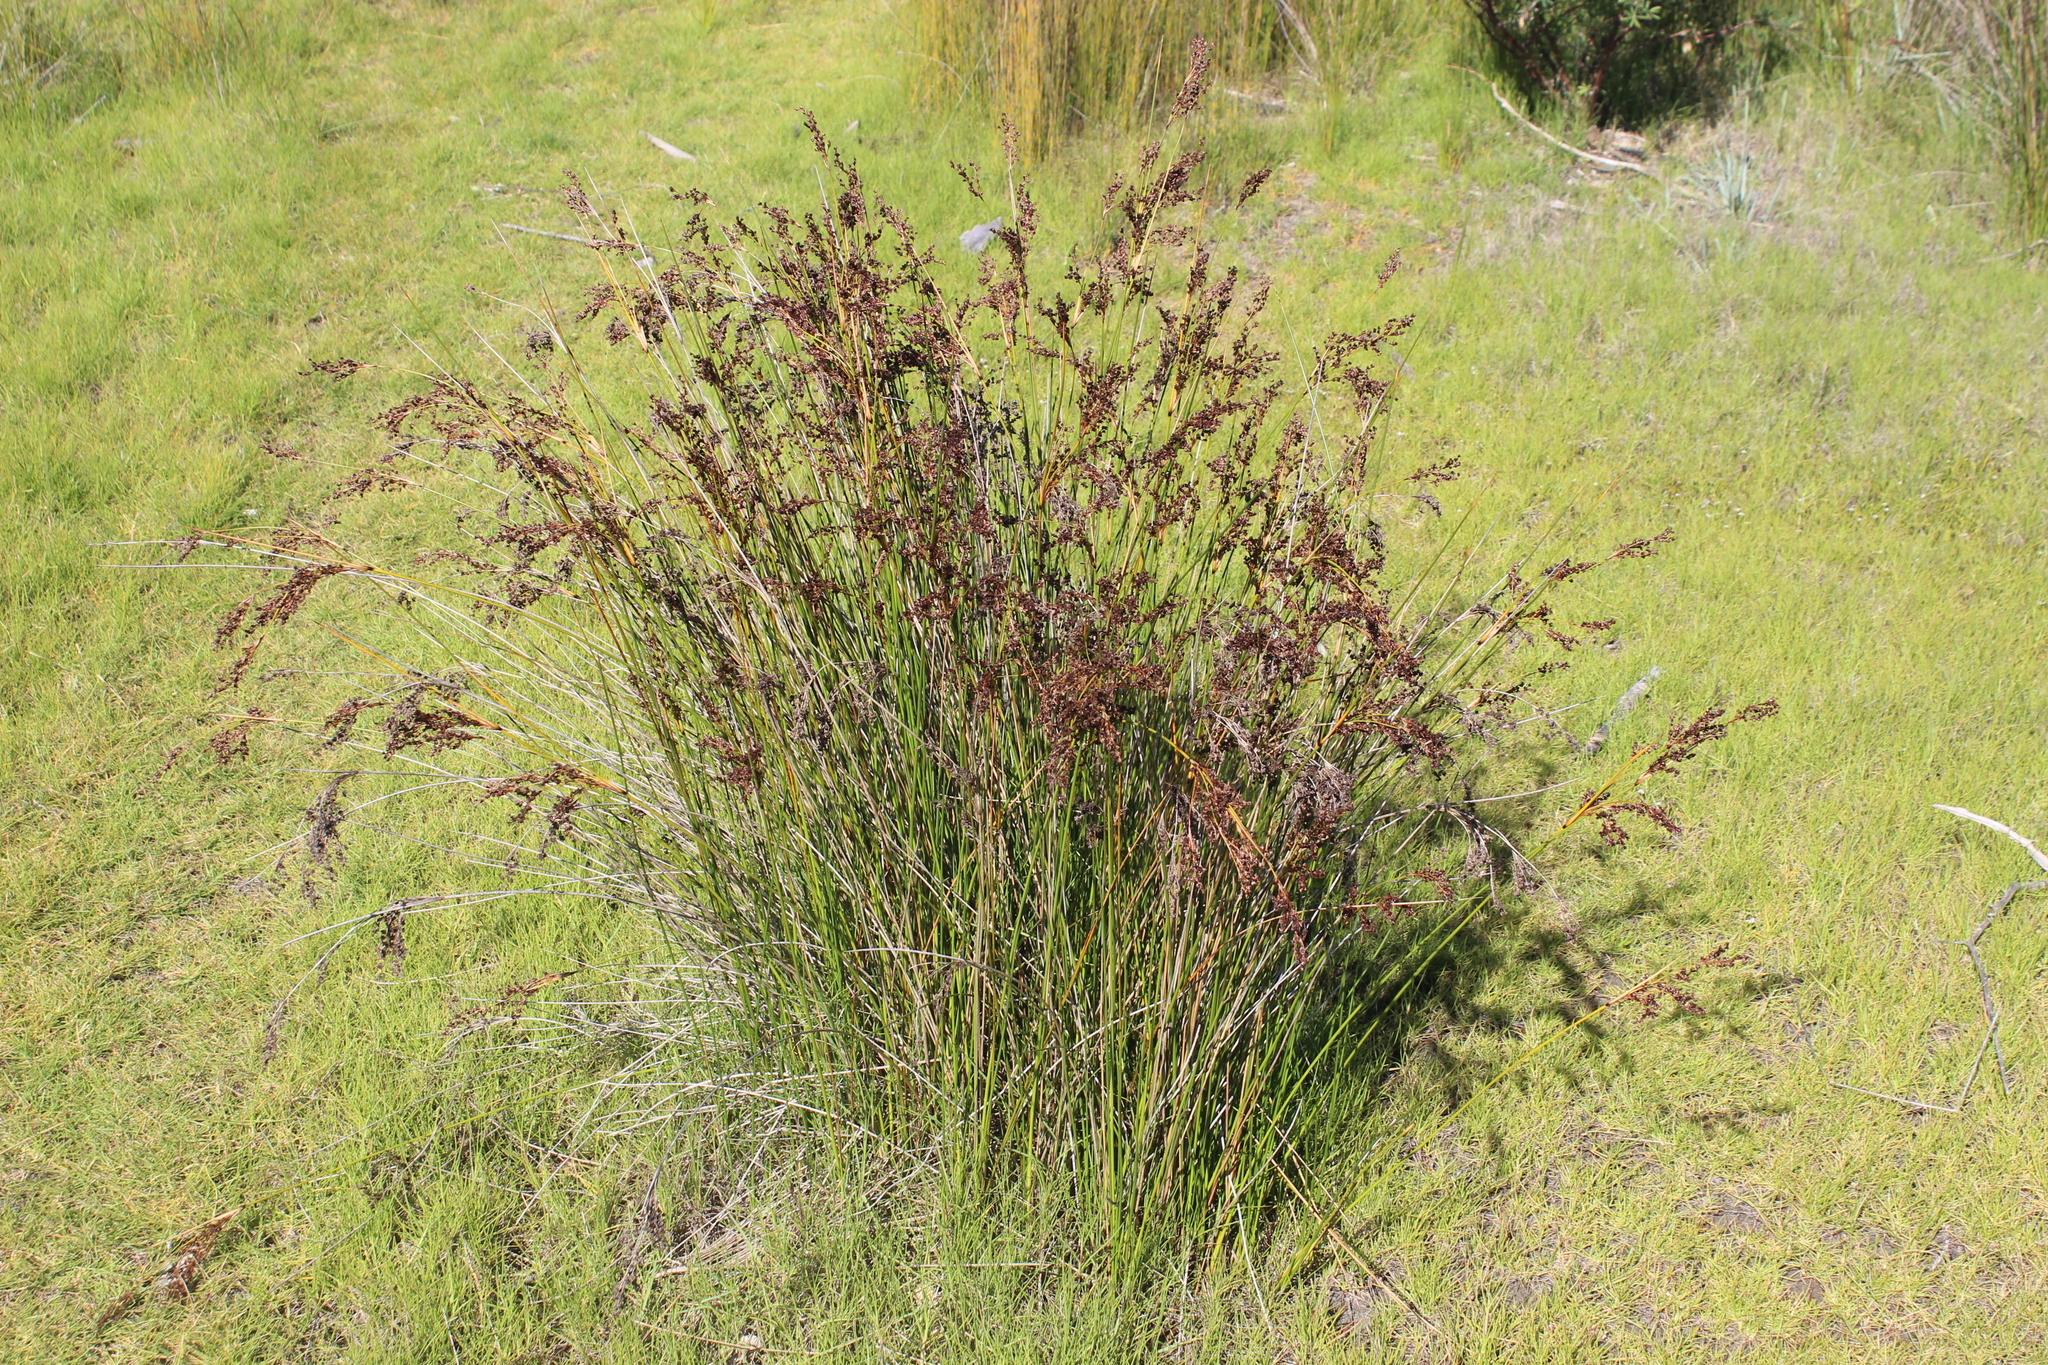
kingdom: Plantae
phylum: Tracheophyta
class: Liliopsida
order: Poales
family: Juncaceae
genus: Juncus
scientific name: Juncus kraussii
